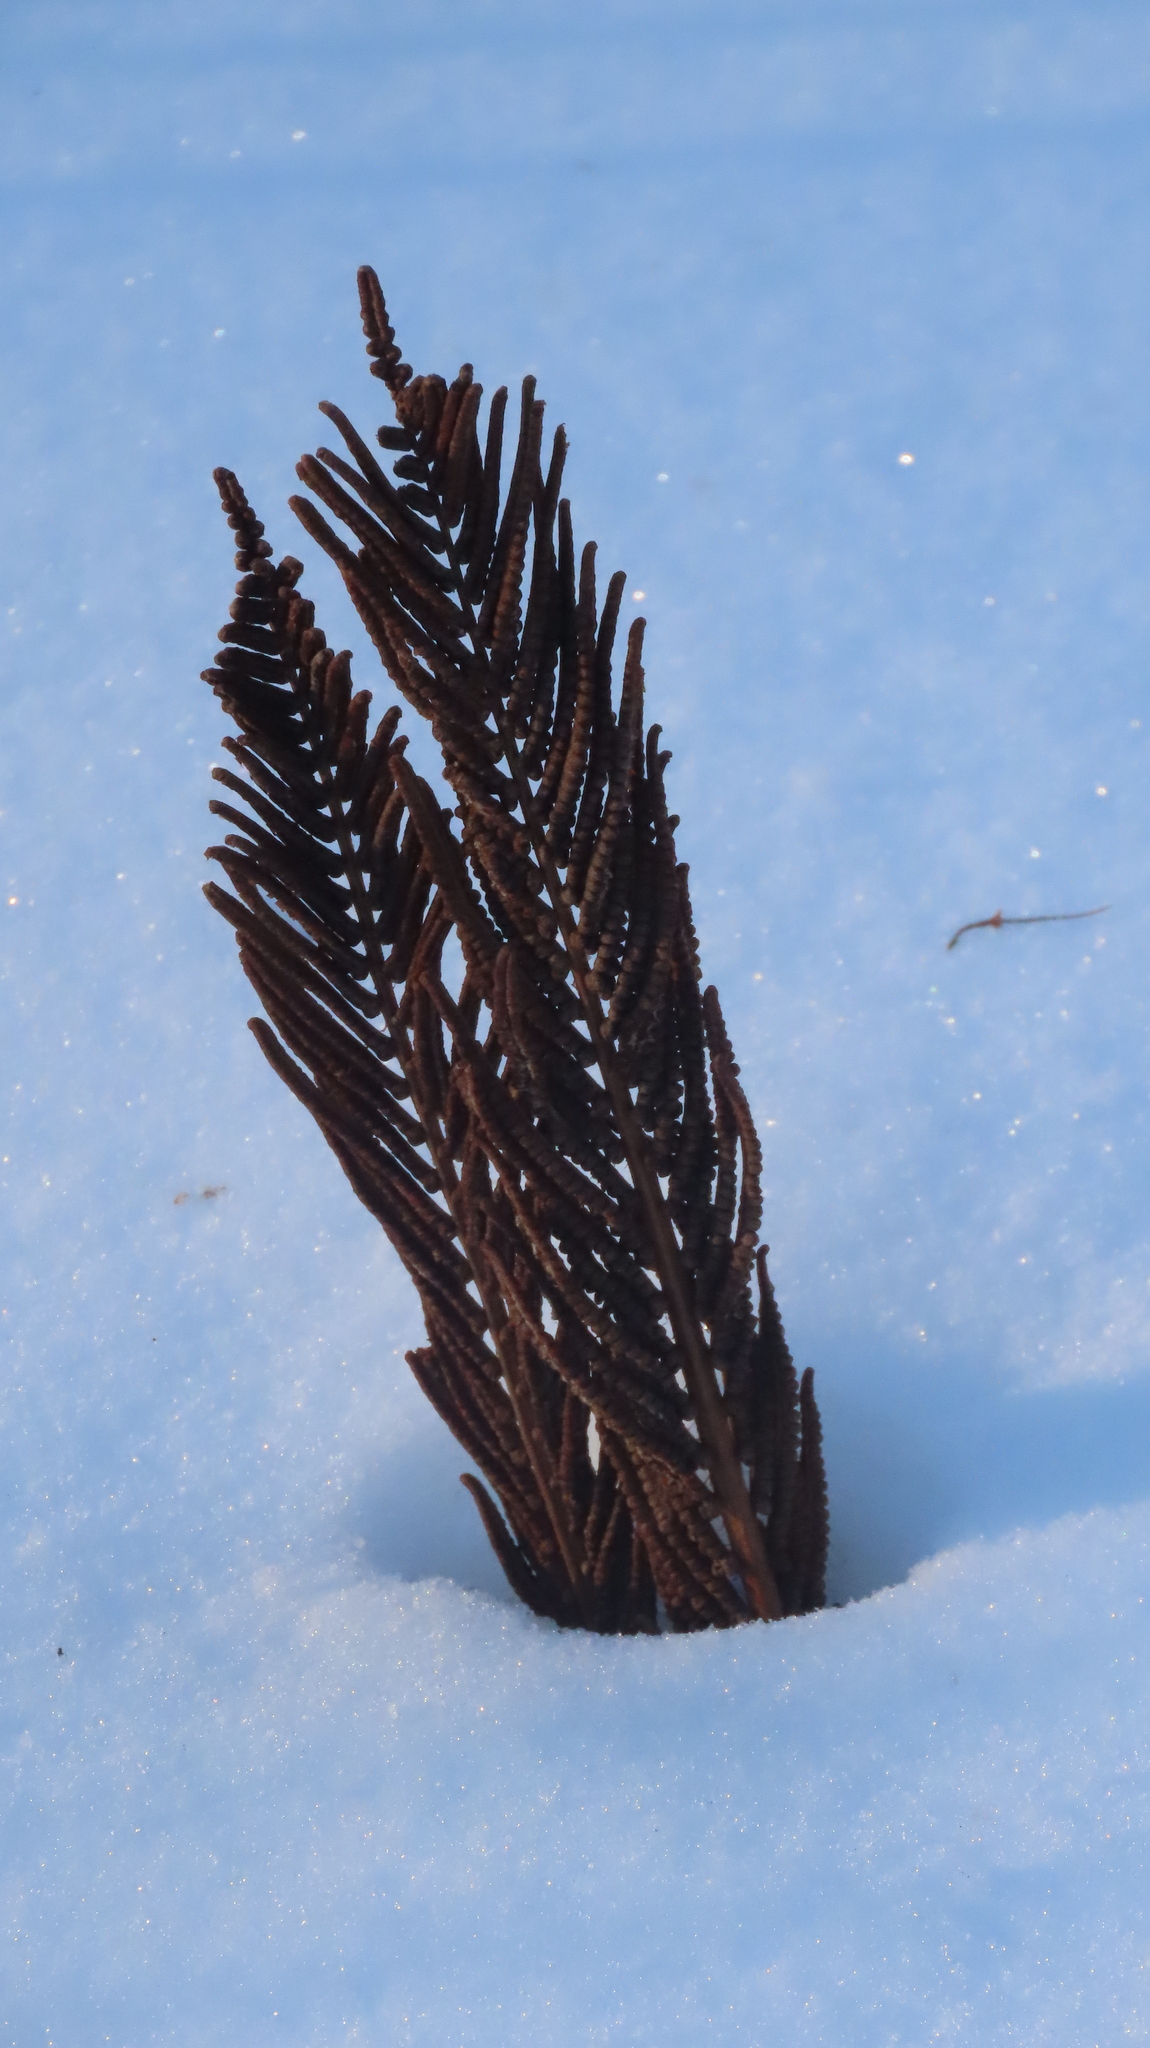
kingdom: Plantae
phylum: Tracheophyta
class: Polypodiopsida
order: Polypodiales
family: Onocleaceae
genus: Matteuccia
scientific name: Matteuccia struthiopteris
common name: Ostrich fern
